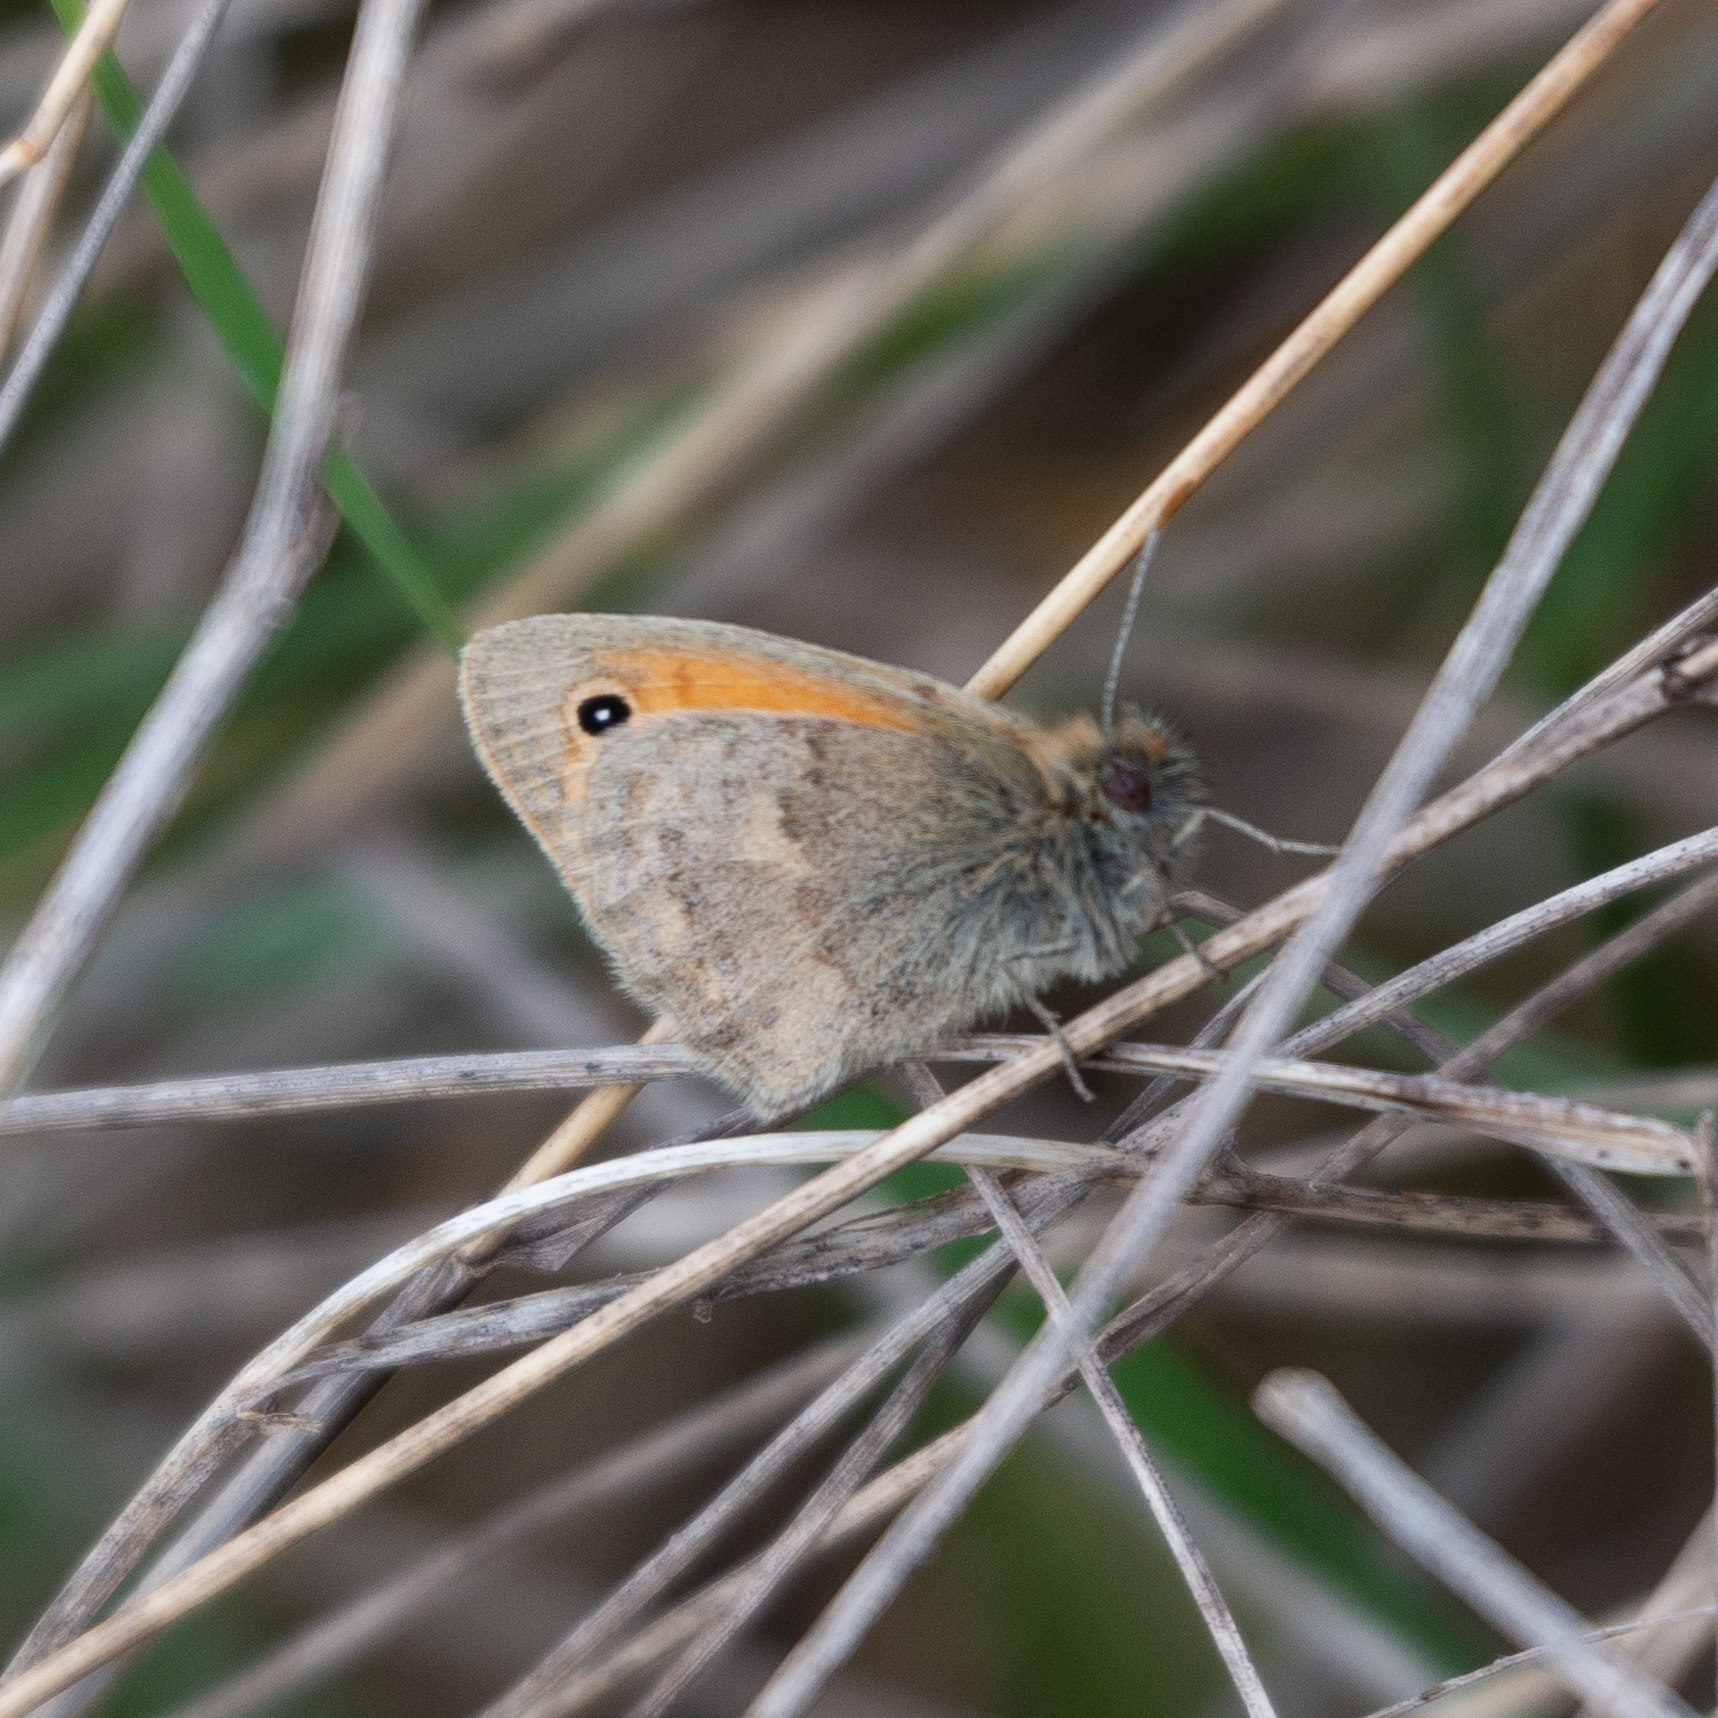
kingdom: Animalia
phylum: Arthropoda
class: Insecta
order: Lepidoptera
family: Nymphalidae
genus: Coenonympha
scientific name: Coenonympha pamphilus
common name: Small heath
